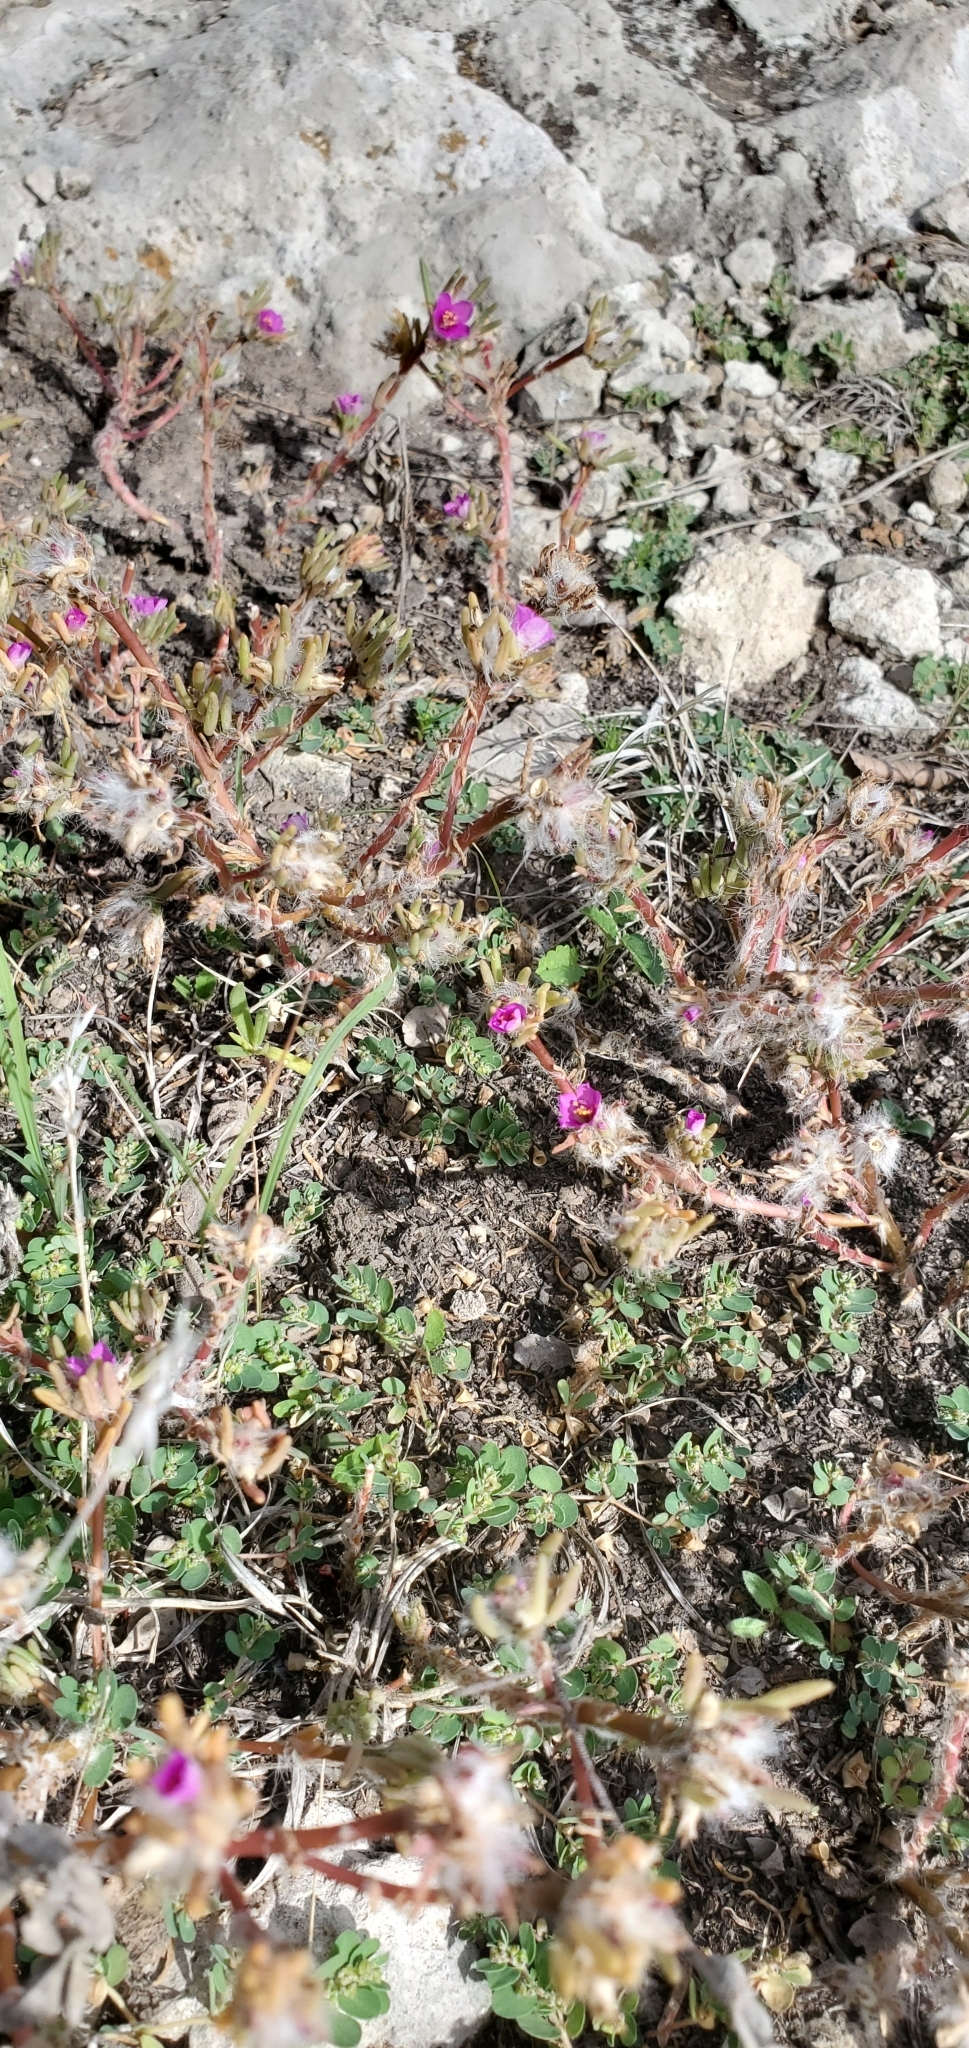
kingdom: Plantae
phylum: Tracheophyta
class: Magnoliopsida
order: Caryophyllales
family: Portulacaceae
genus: Portulaca
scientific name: Portulaca pilosa
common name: Kiss me quick
